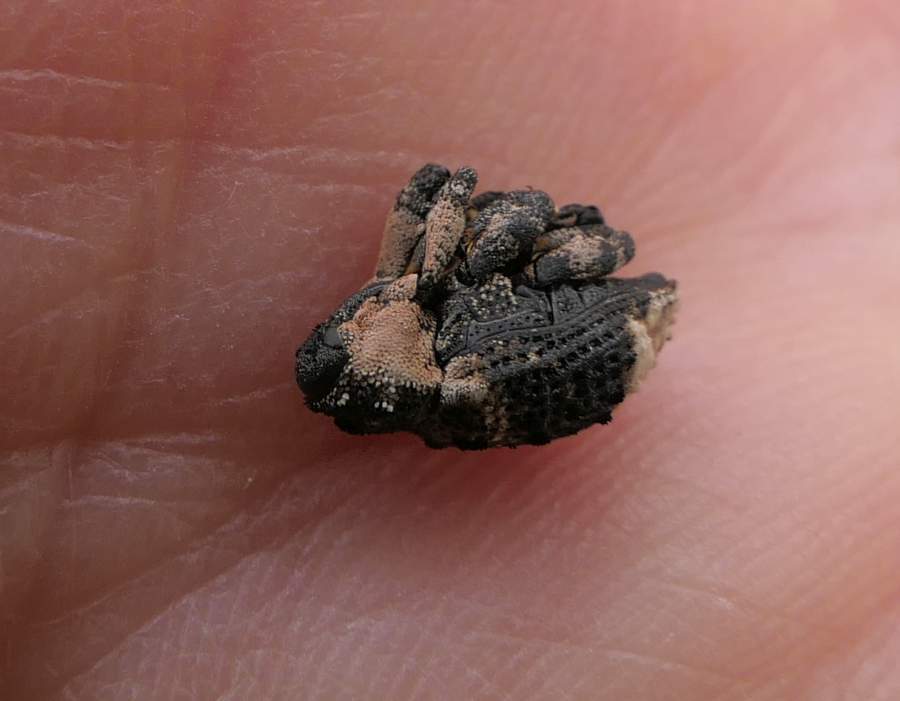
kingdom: Animalia
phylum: Arthropoda
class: Insecta
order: Coleoptera
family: Curculionidae
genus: Cryptorhynchus
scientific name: Cryptorhynchus lapathi
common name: Weevil
